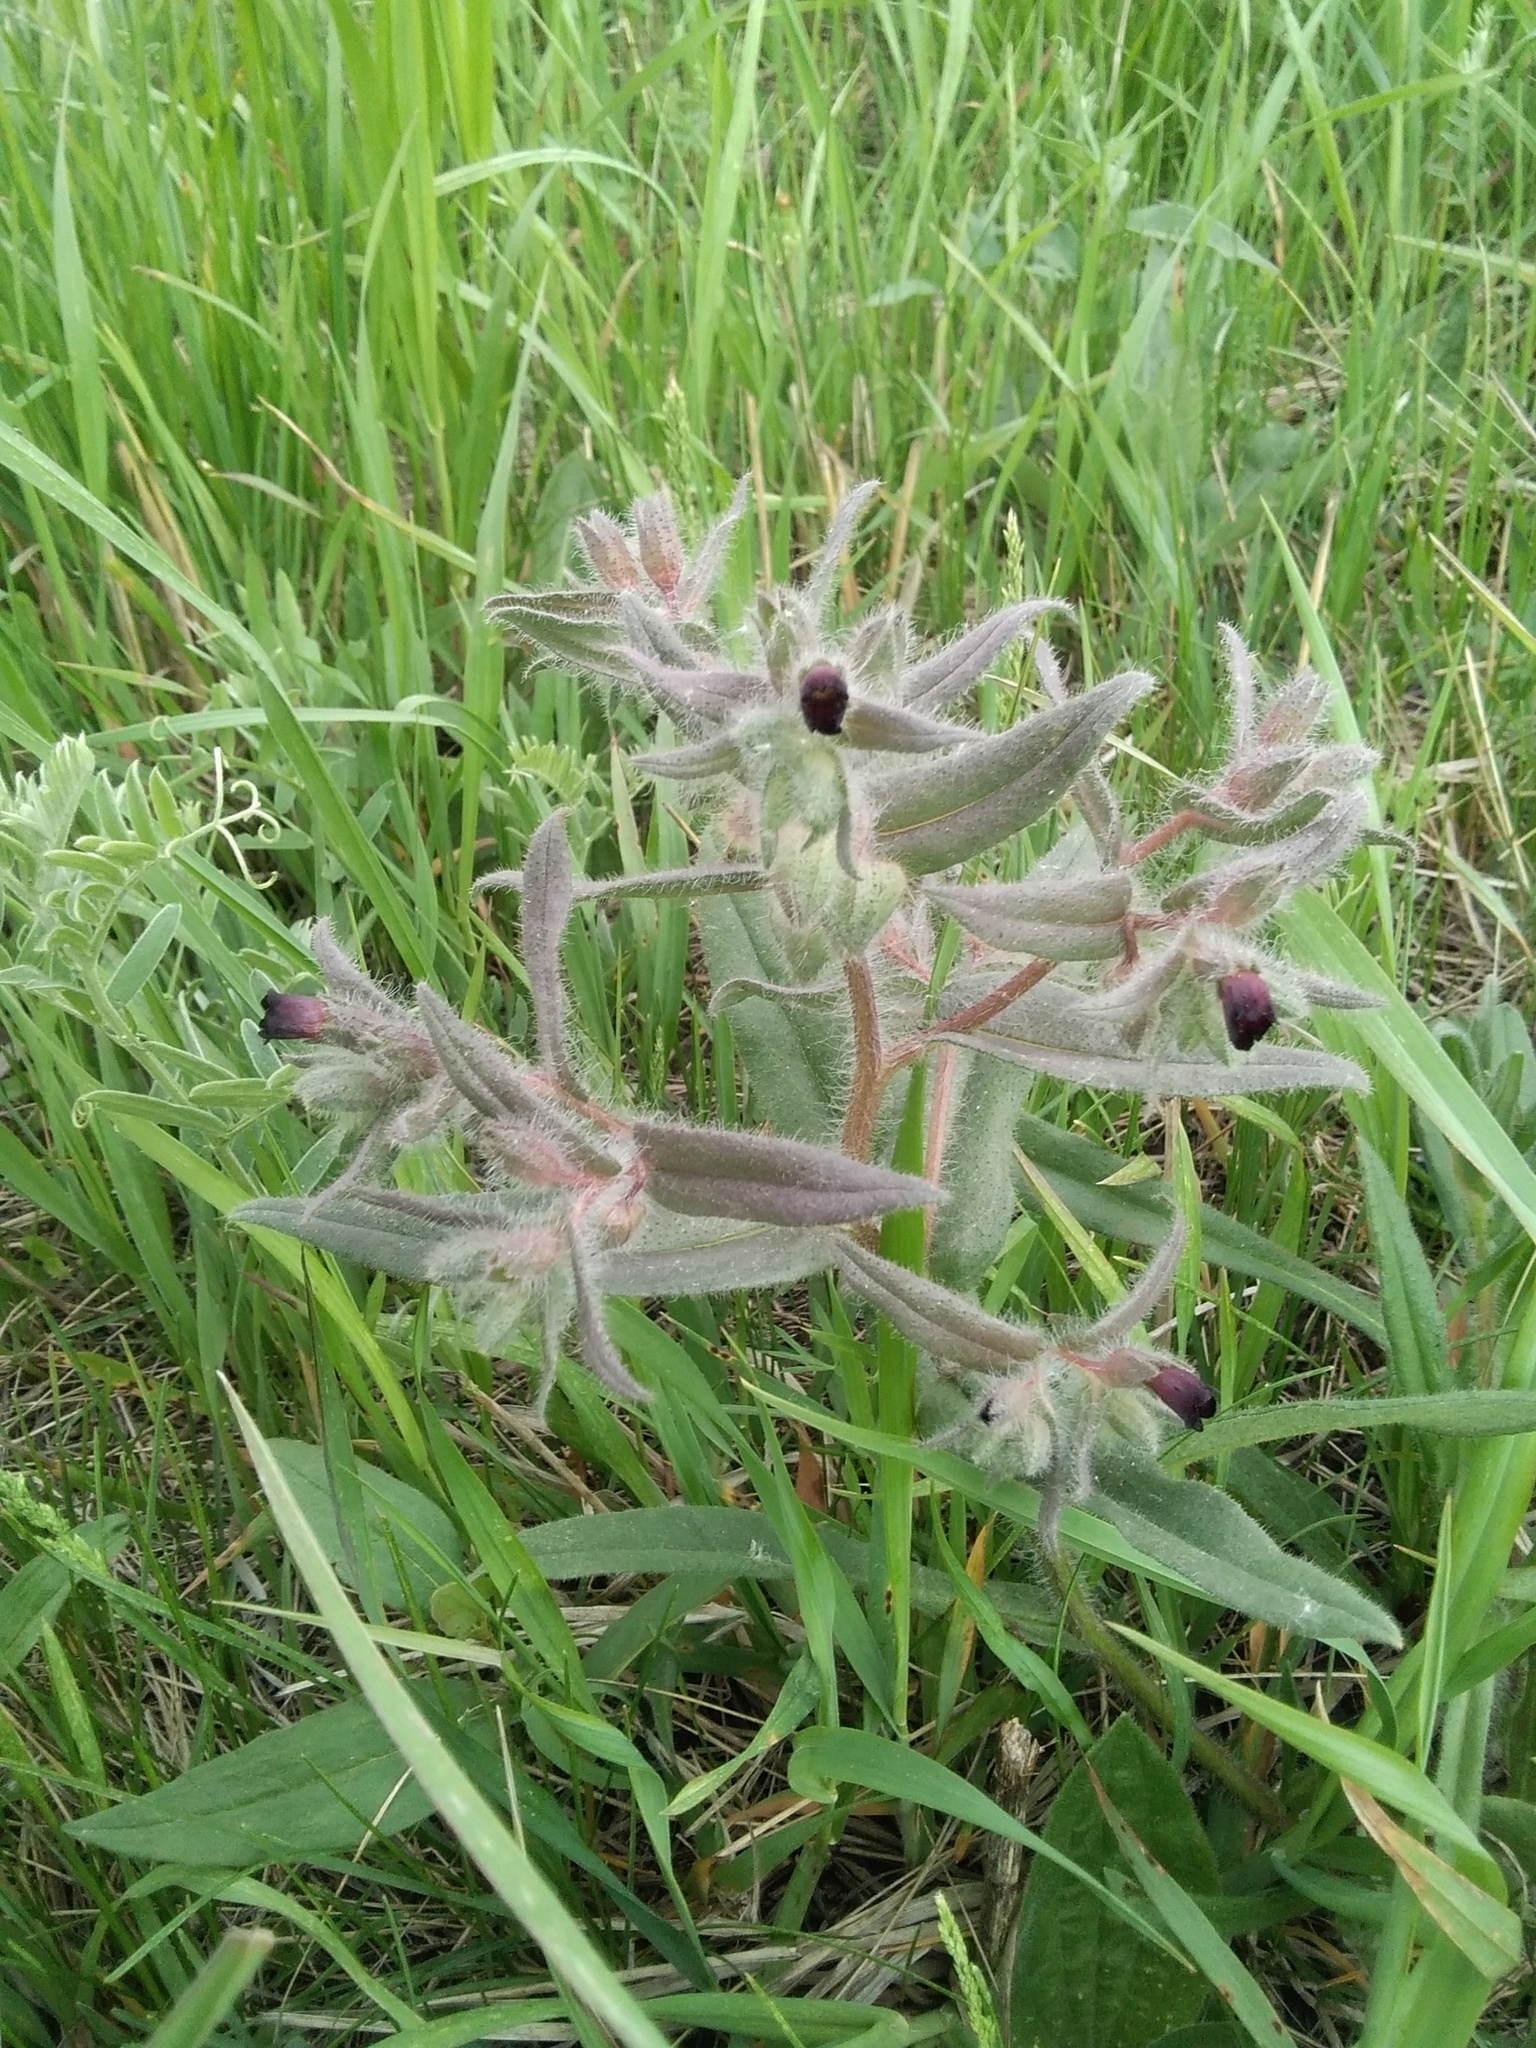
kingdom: Plantae
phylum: Tracheophyta
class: Magnoliopsida
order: Boraginales
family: Boraginaceae
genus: Nonea
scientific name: Nonea pulla
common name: Brown nonea
